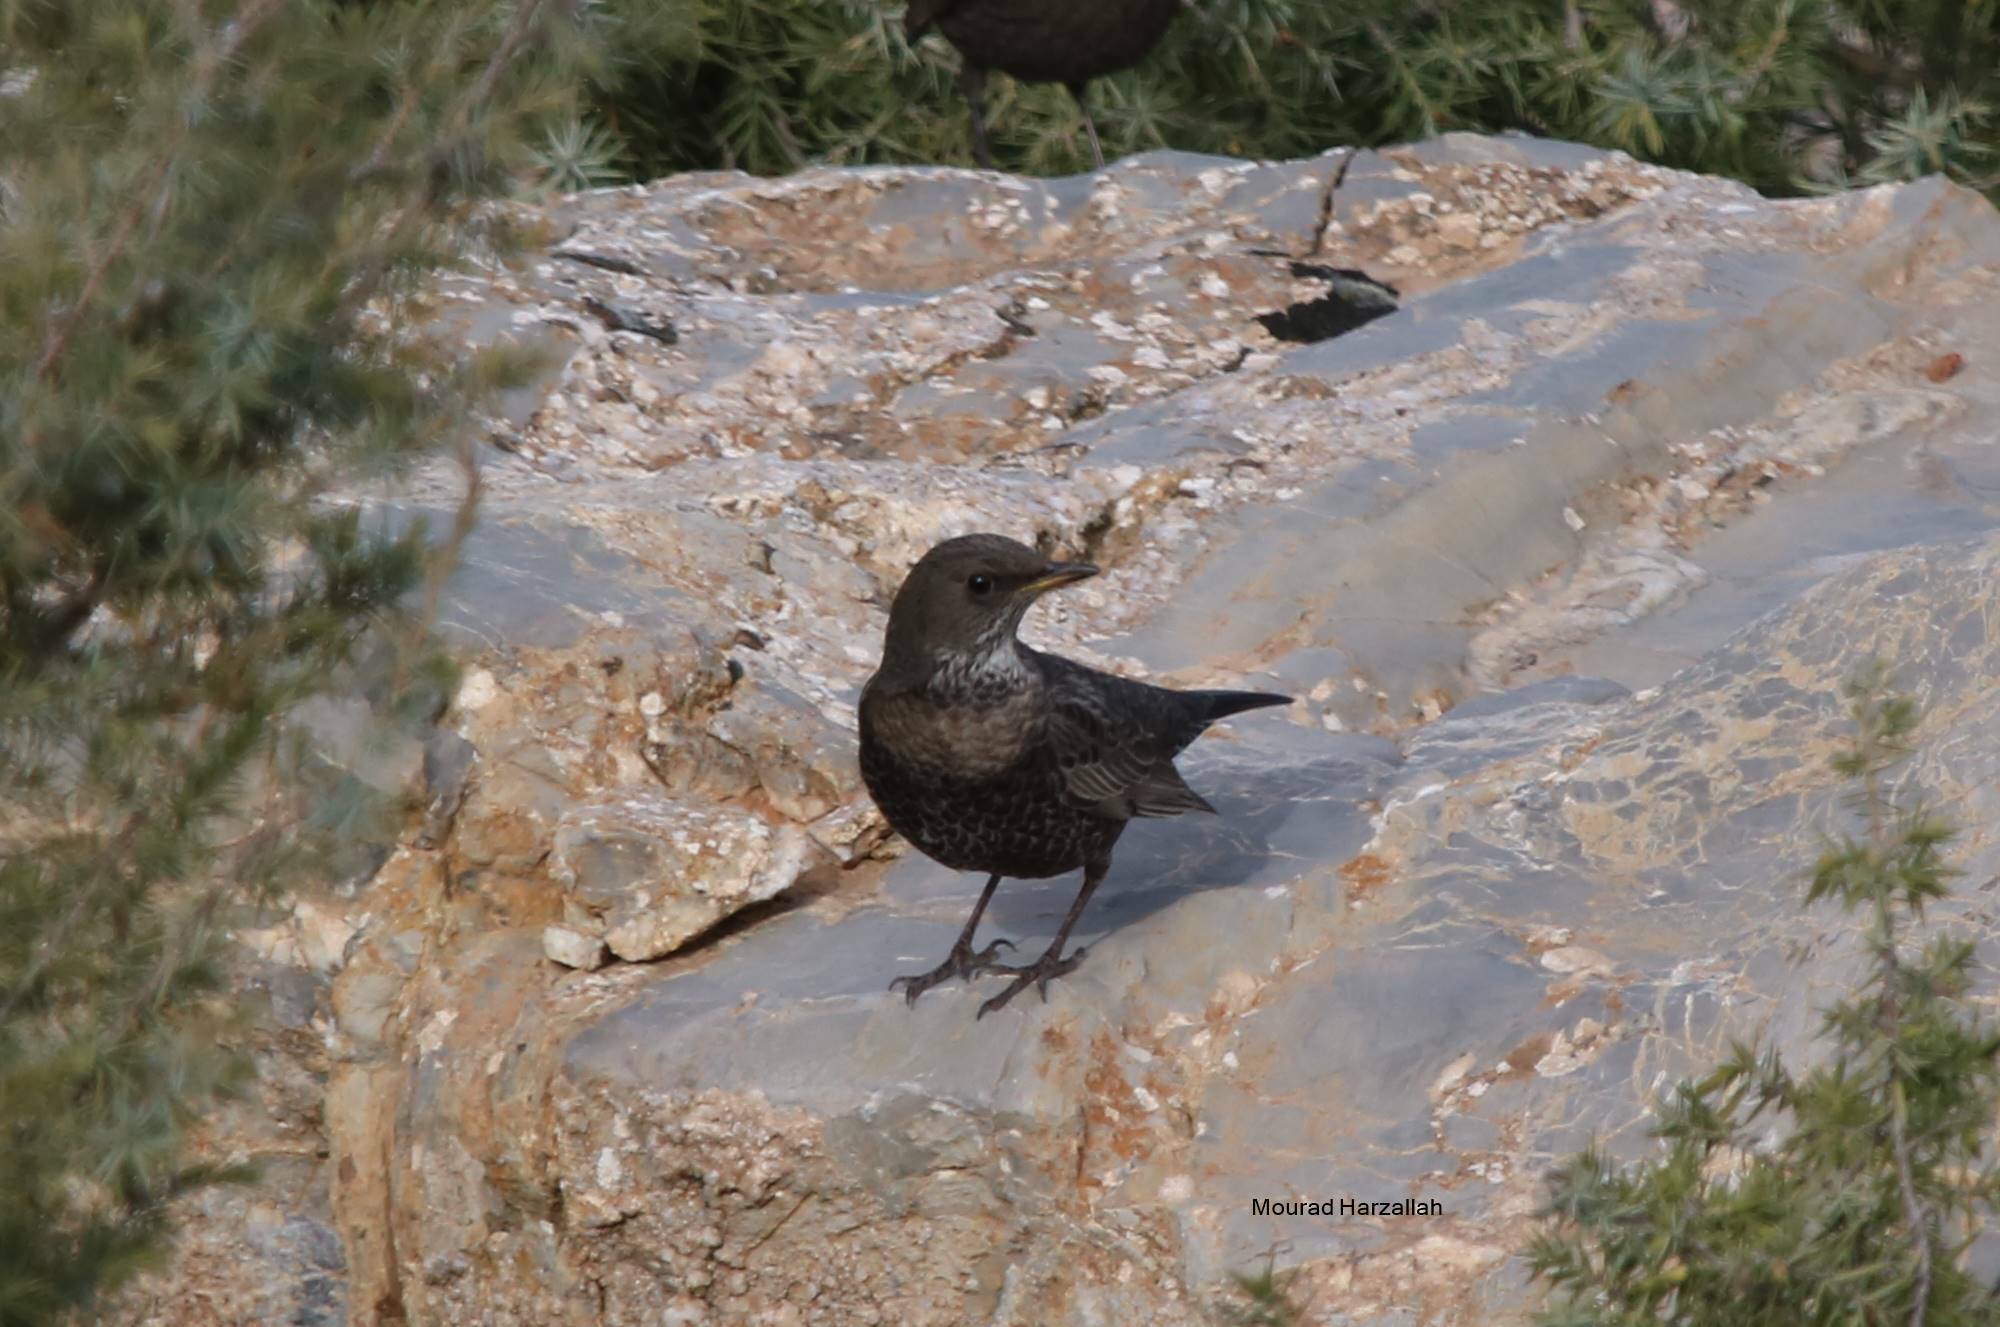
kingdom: Animalia
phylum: Chordata
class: Aves
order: Passeriformes
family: Turdidae
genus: Turdus
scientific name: Turdus torquatus
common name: Ring ouzel
